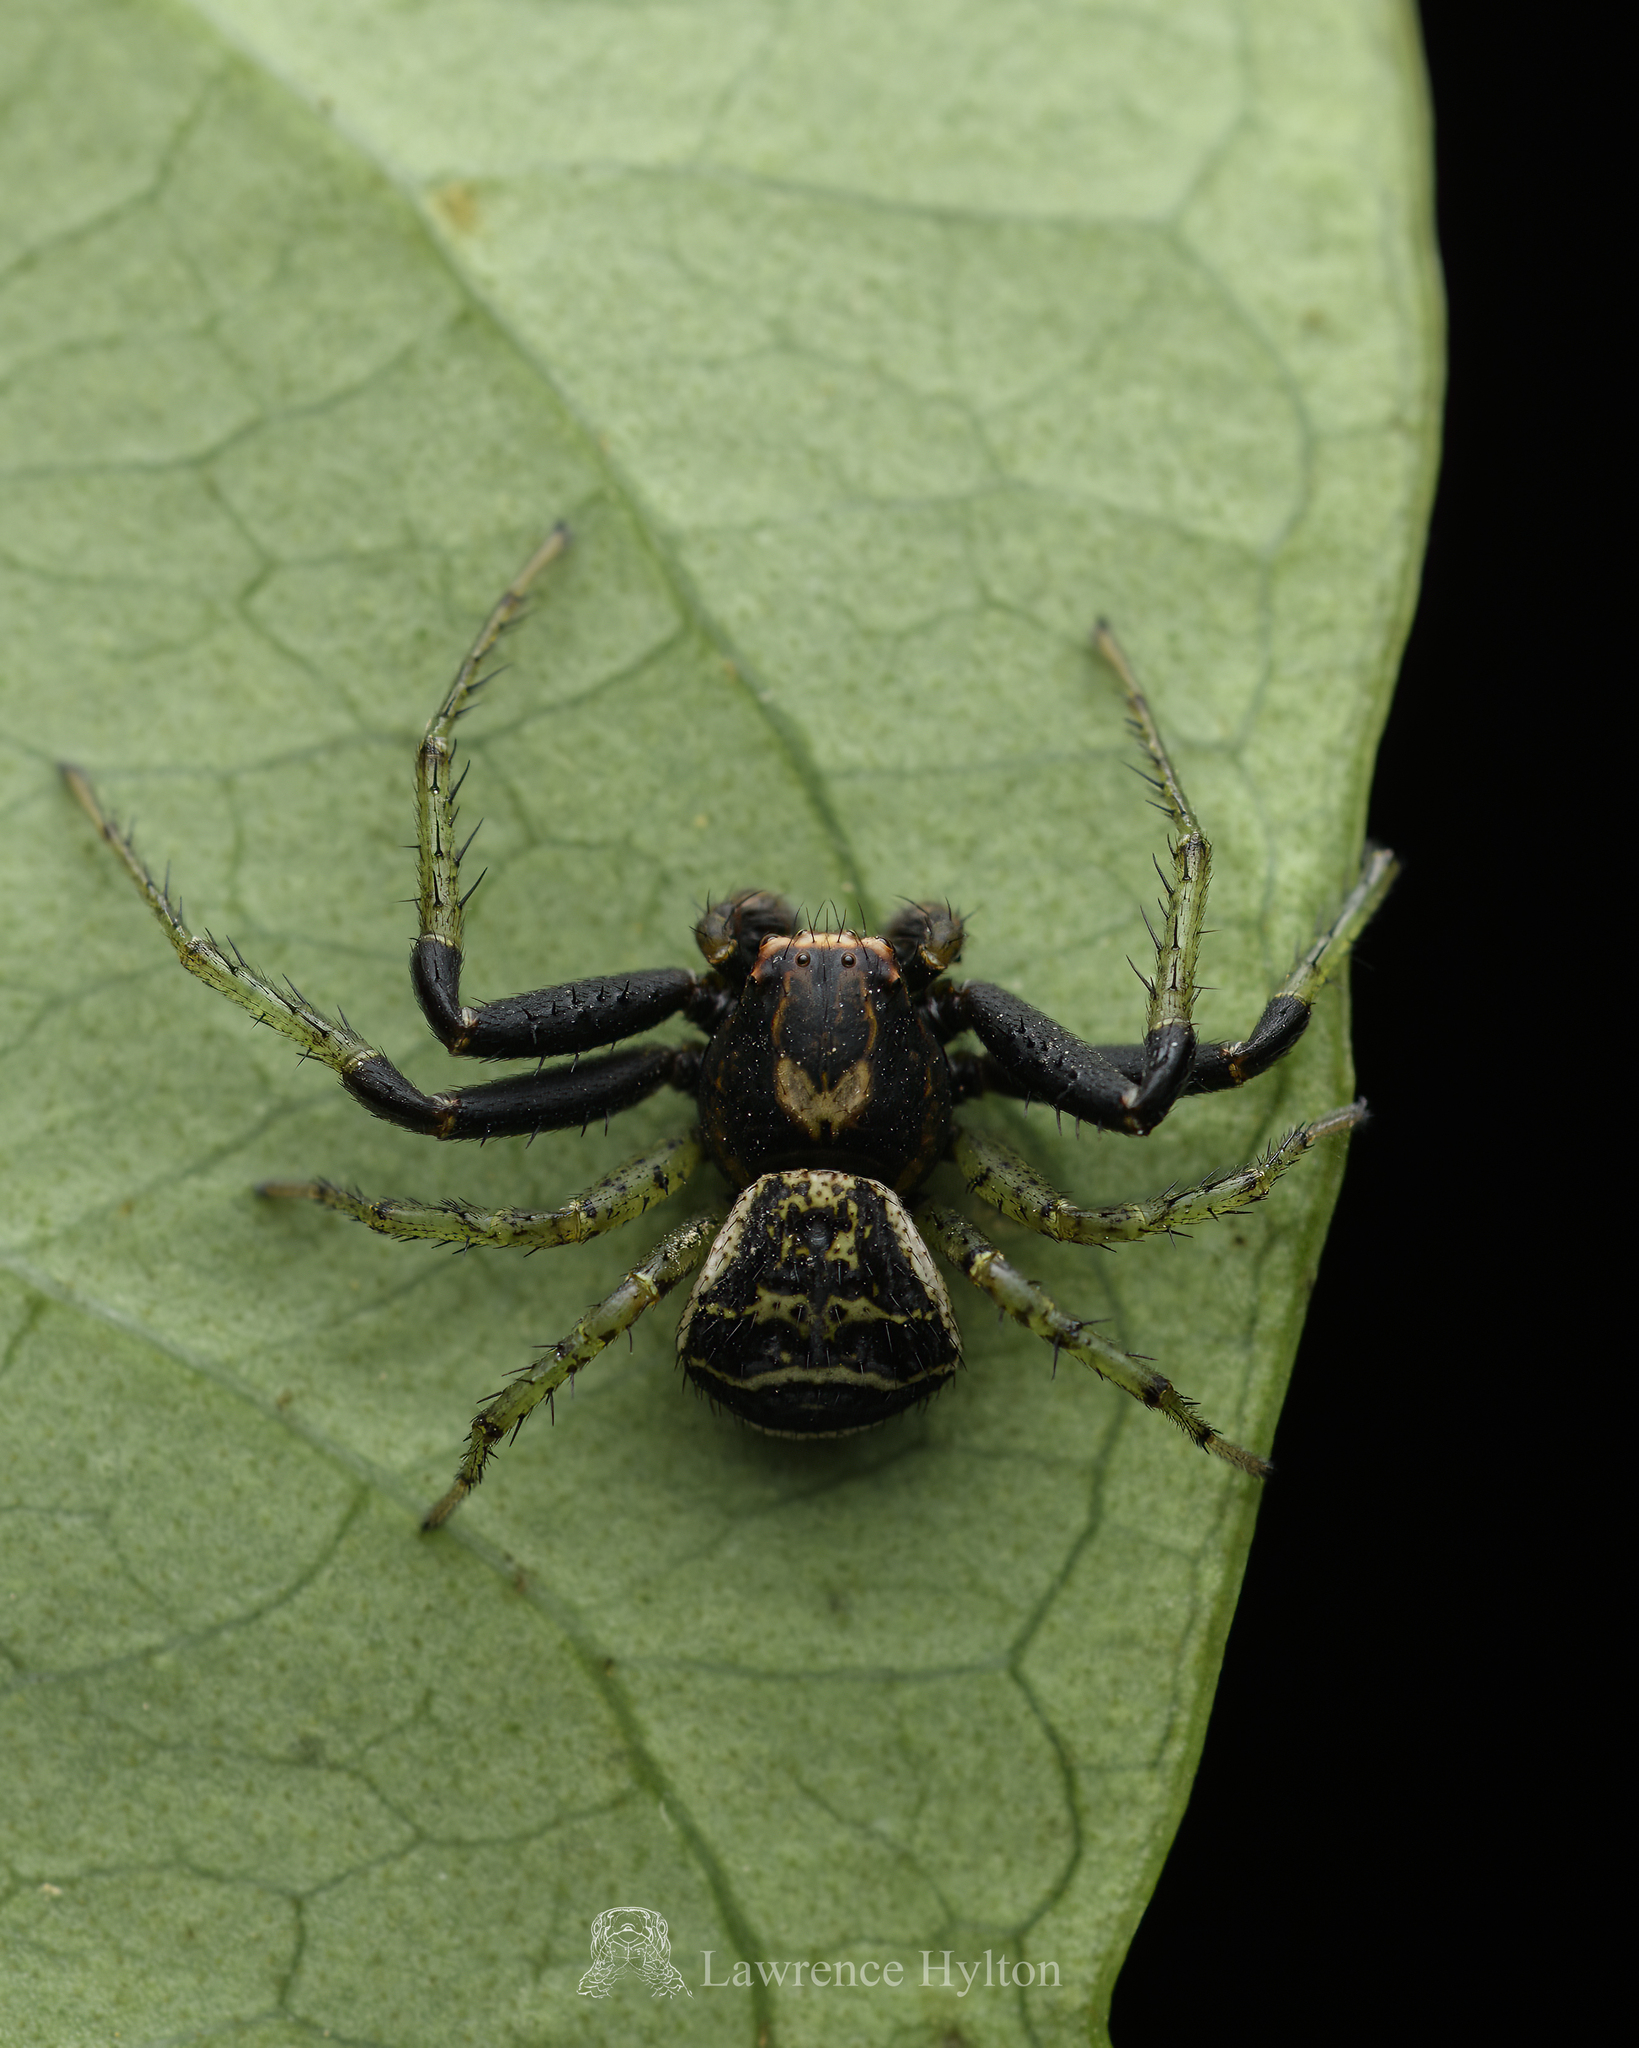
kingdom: Animalia
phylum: Arthropoda
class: Arachnida
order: Araneae
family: Thomisidae
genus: Xysticus
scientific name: Xysticus croceus
